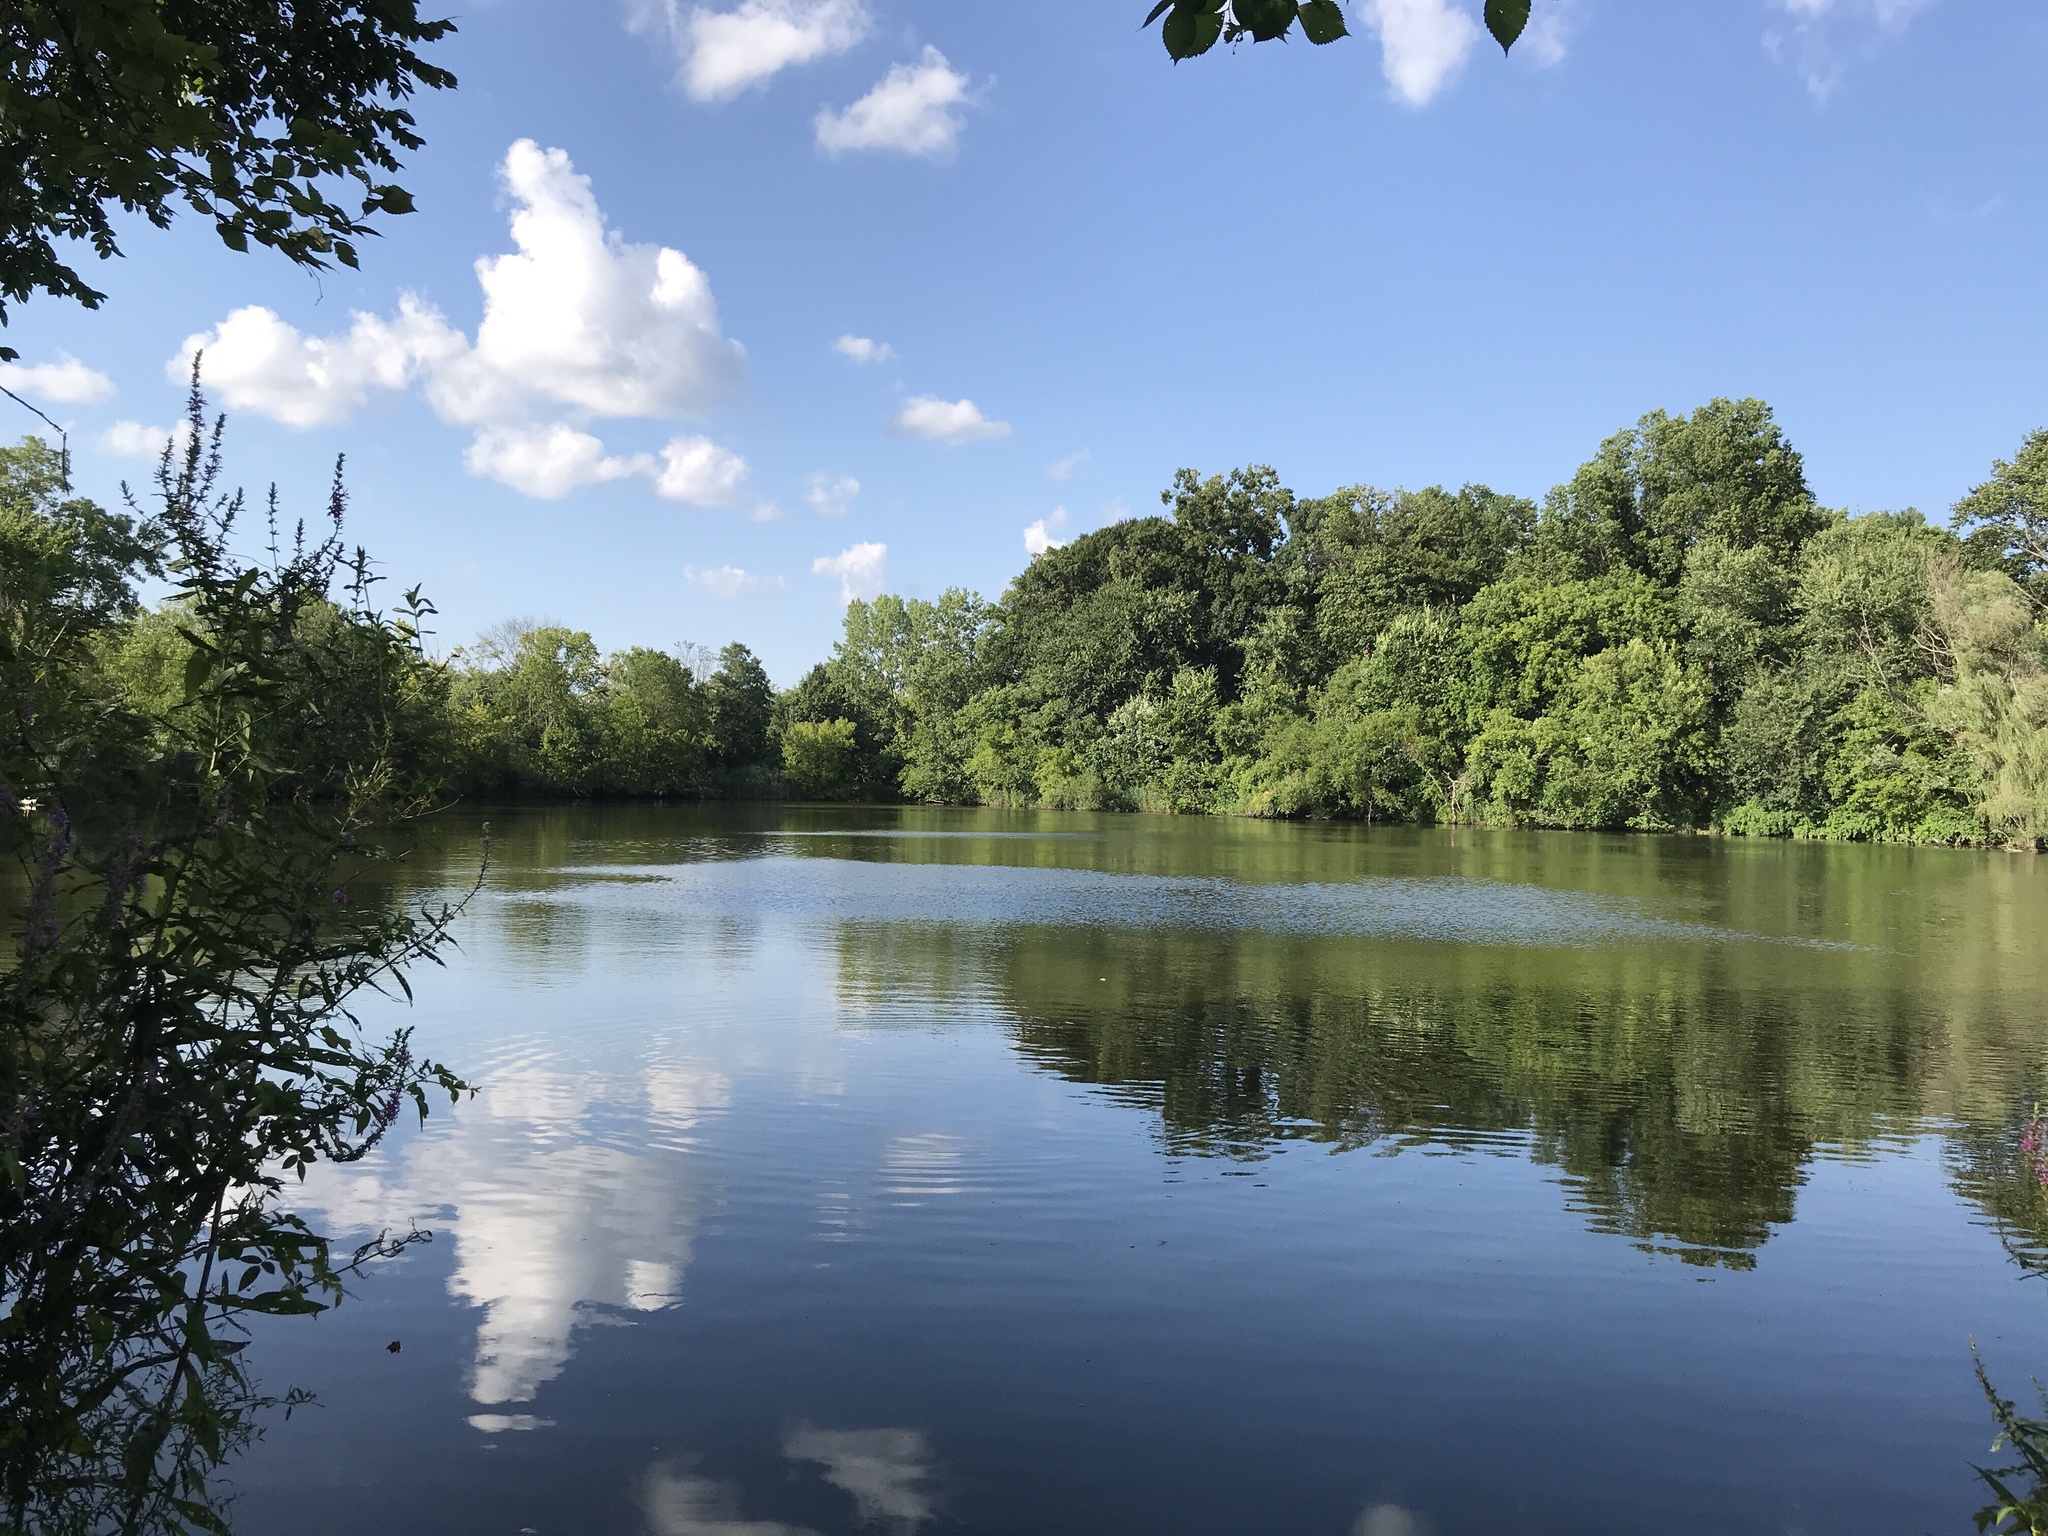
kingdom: Animalia
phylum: Chordata
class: Testudines
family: Emydidae
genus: Trachemys
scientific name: Trachemys scripta
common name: Slider
